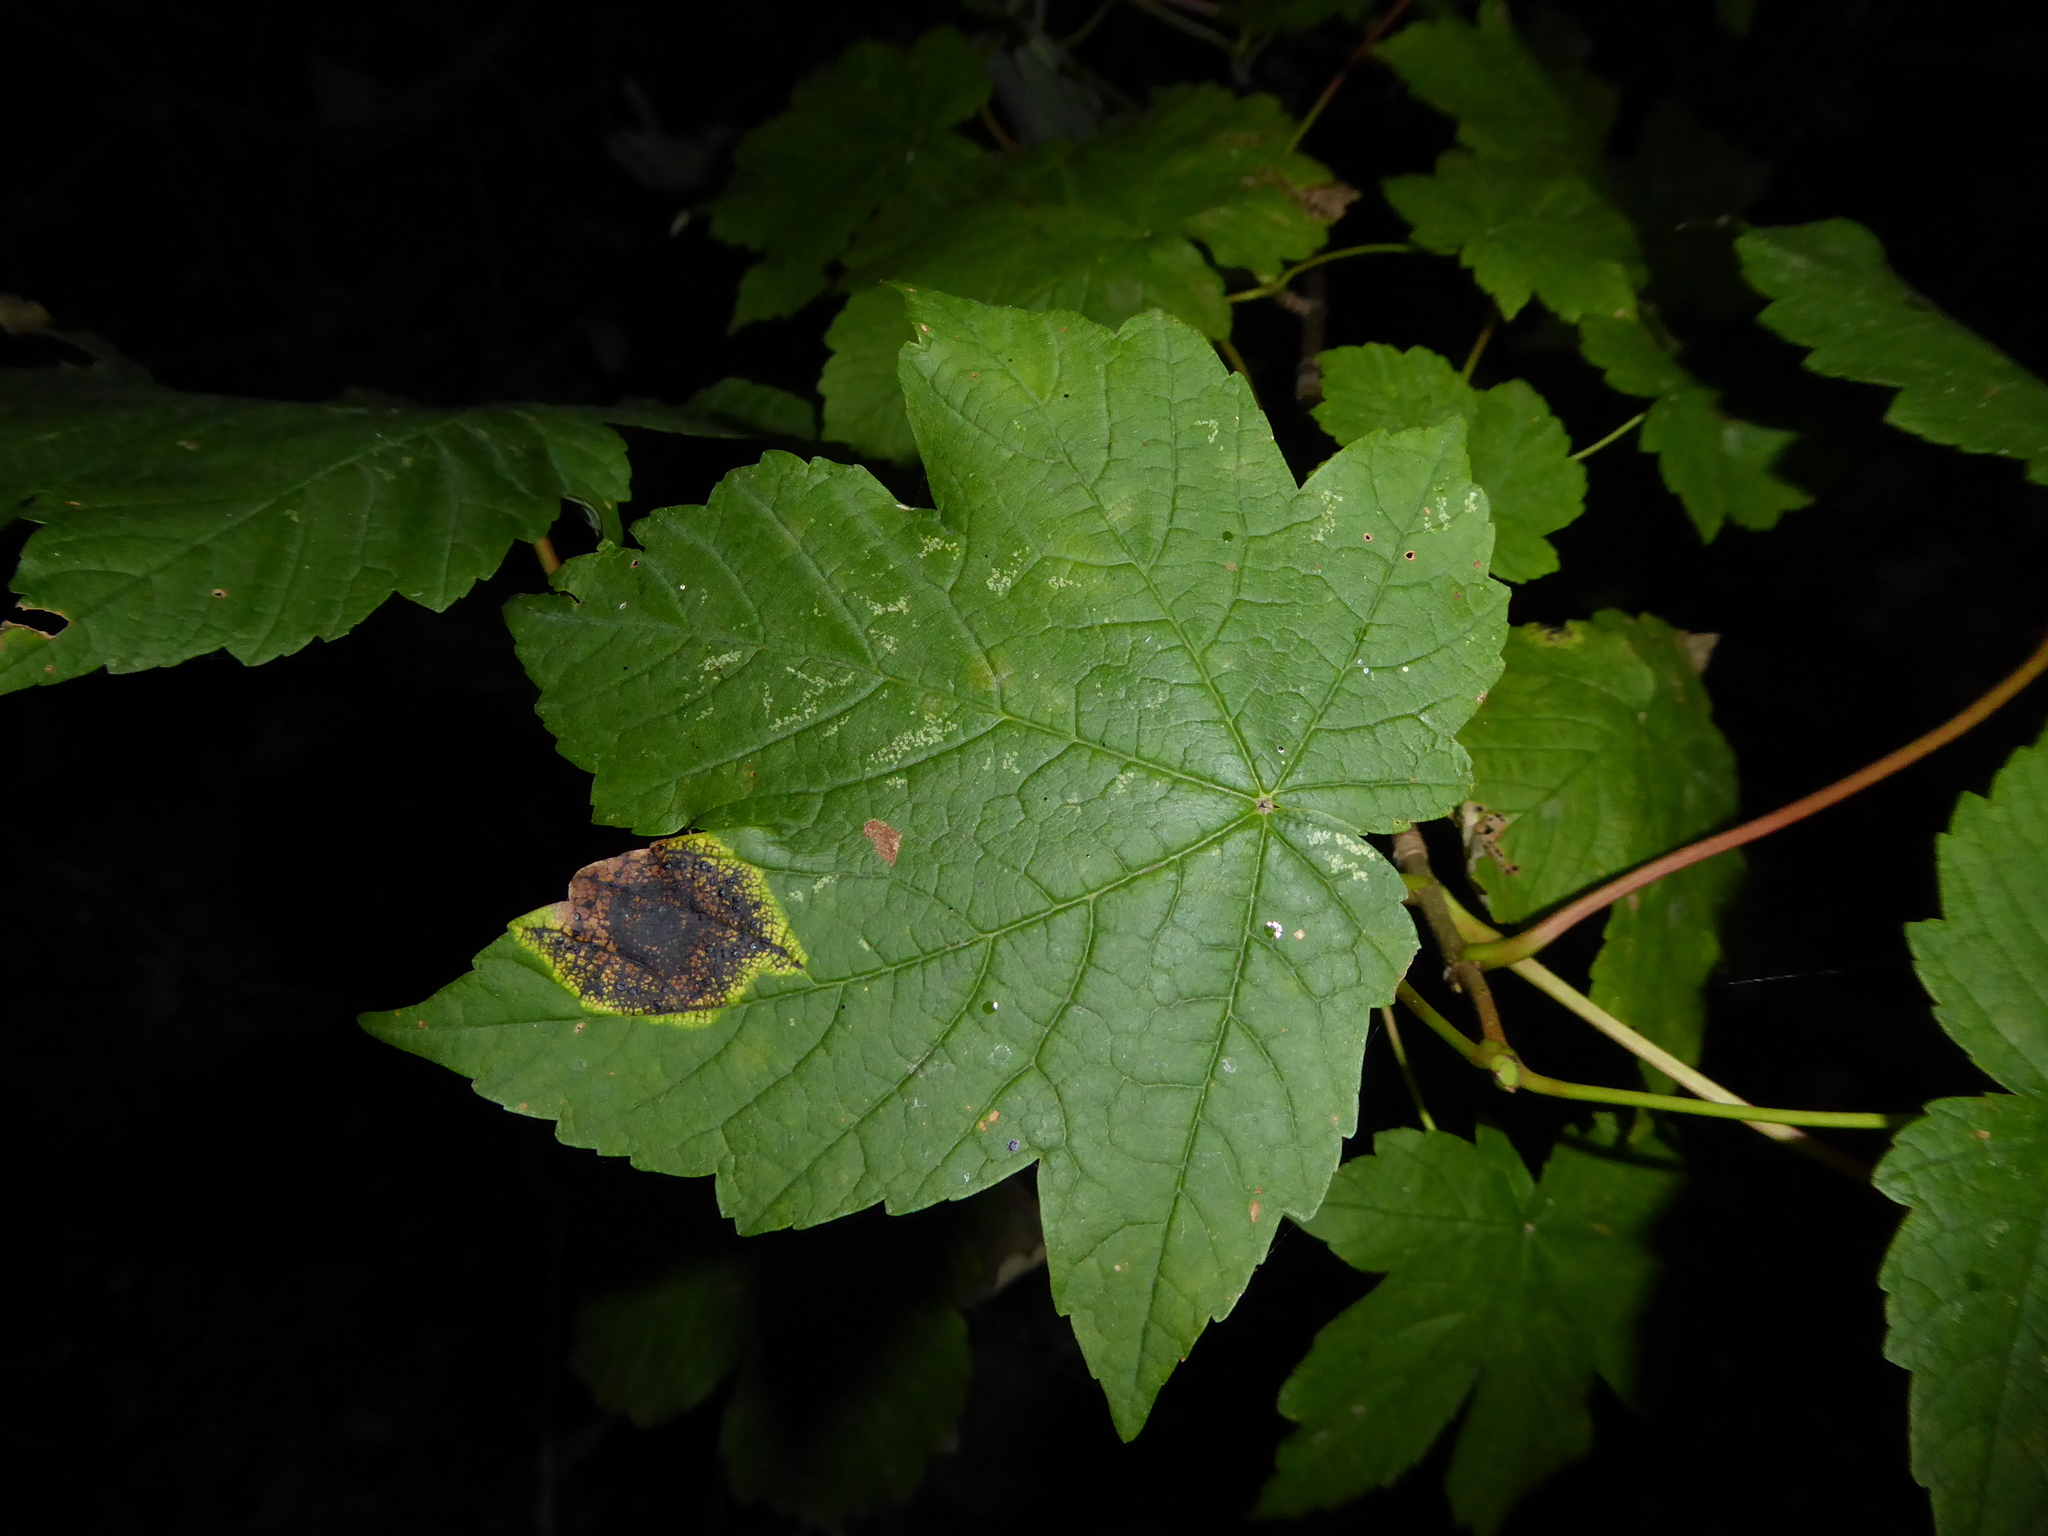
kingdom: Fungi
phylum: Ascomycota
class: Leotiomycetes
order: Rhytismatales
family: Rhytismataceae
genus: Rhytisma
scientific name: Rhytisma acerinum
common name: European tar spot
